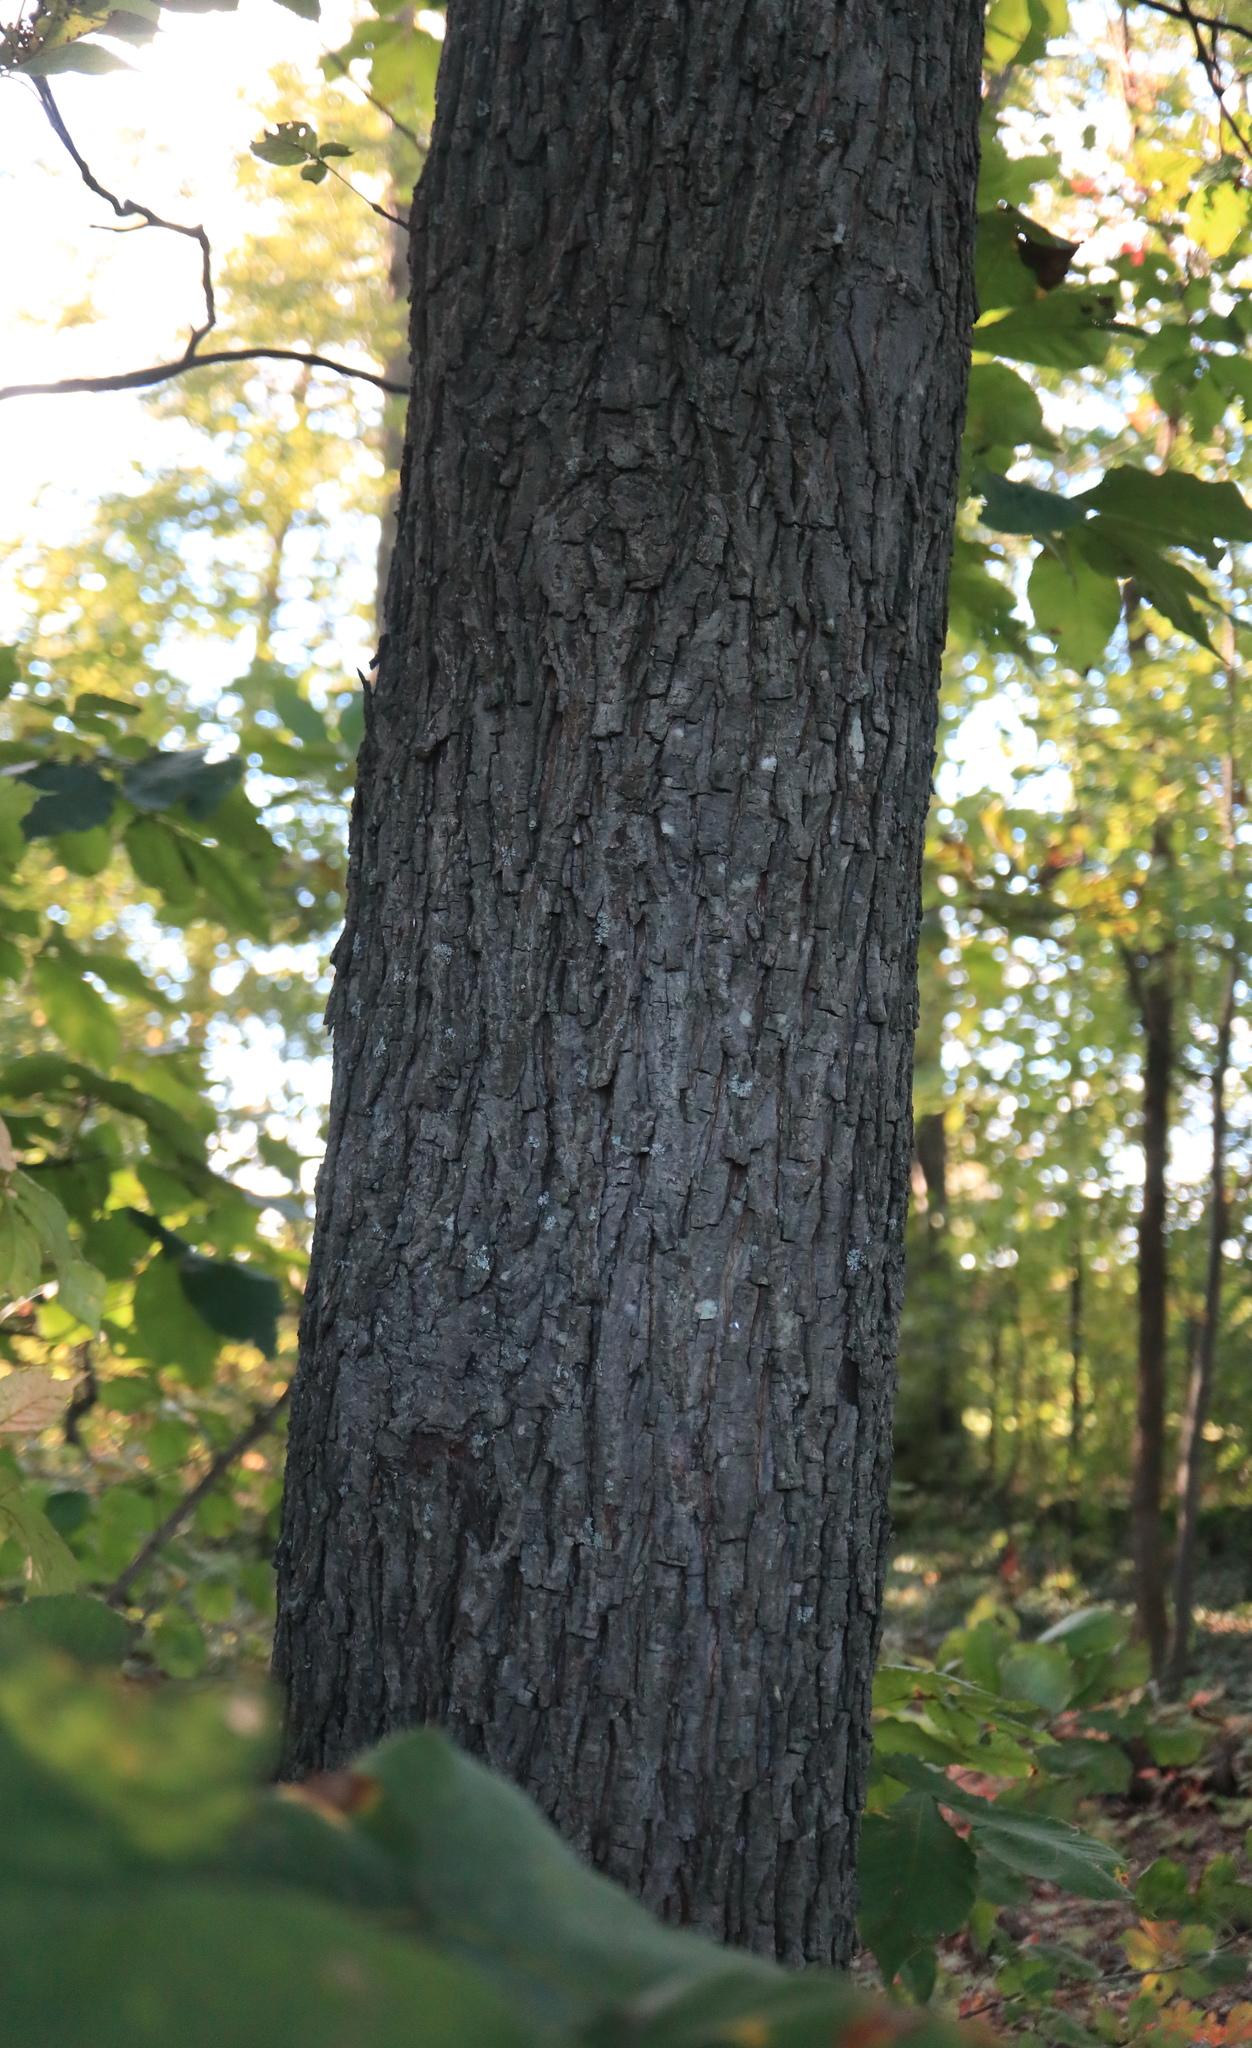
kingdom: Plantae
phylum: Tracheophyta
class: Magnoliopsida
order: Fagales
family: Juglandaceae
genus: Carya
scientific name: Carya glabra
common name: Pignut hickory
